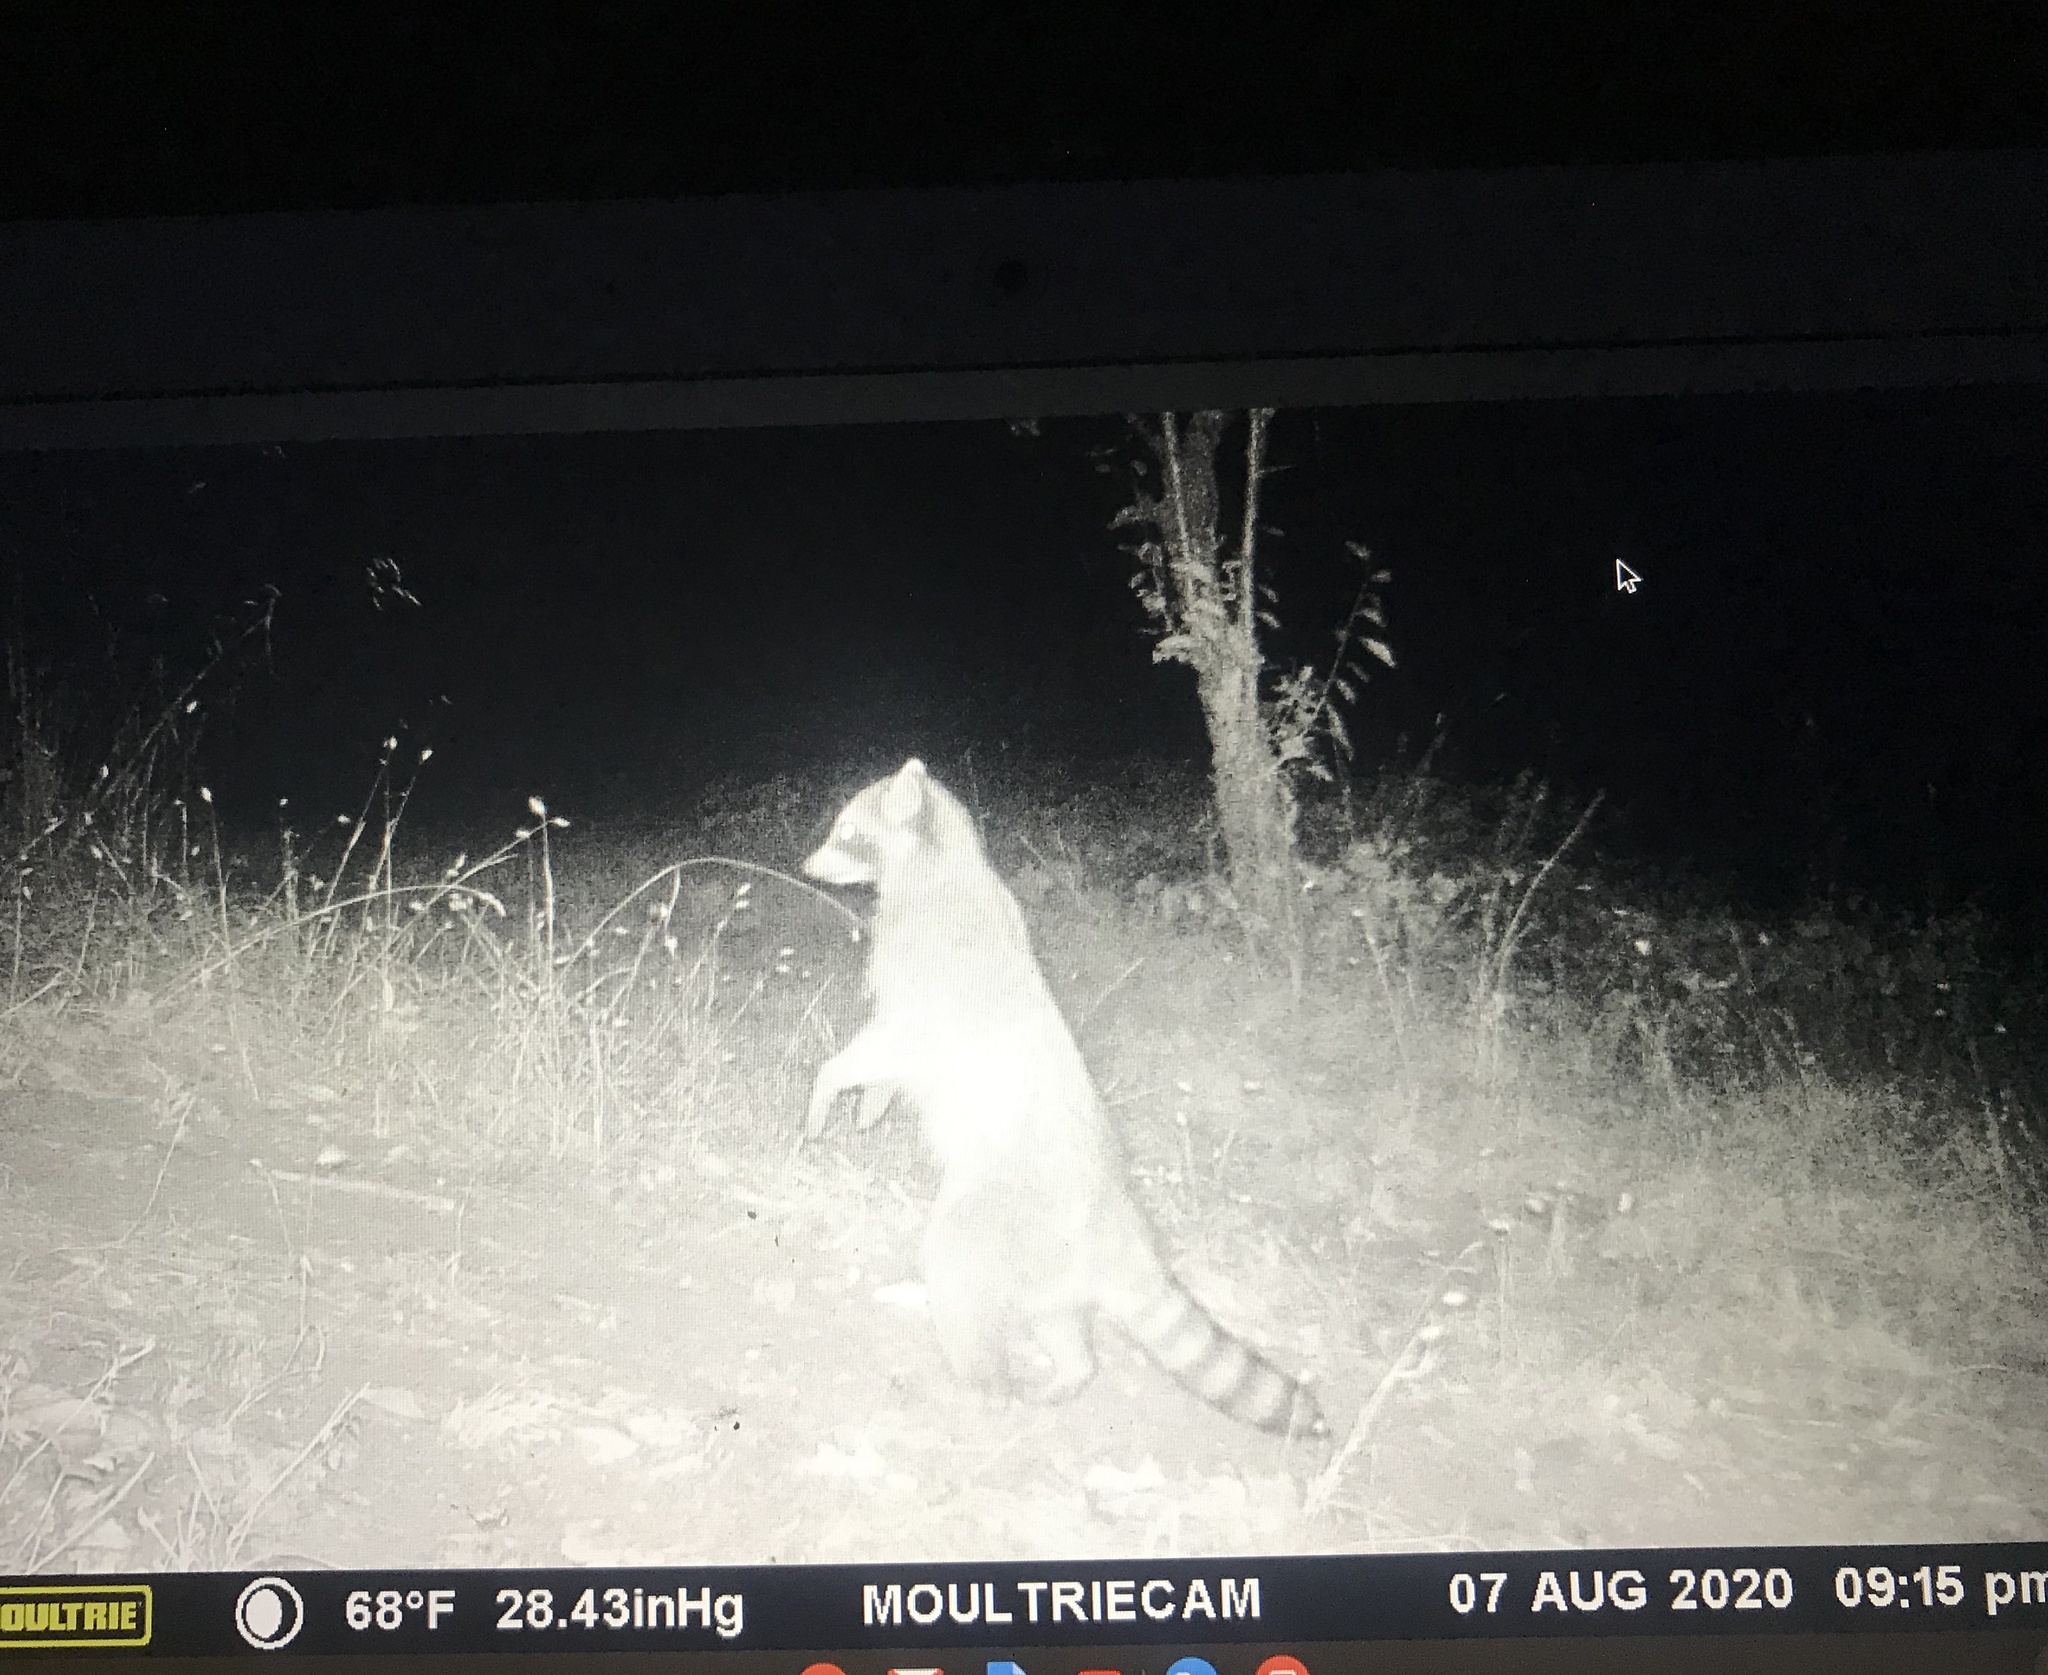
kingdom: Animalia
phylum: Chordata
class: Mammalia
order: Carnivora
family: Procyonidae
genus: Procyon
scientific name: Procyon lotor
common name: Raccoon
